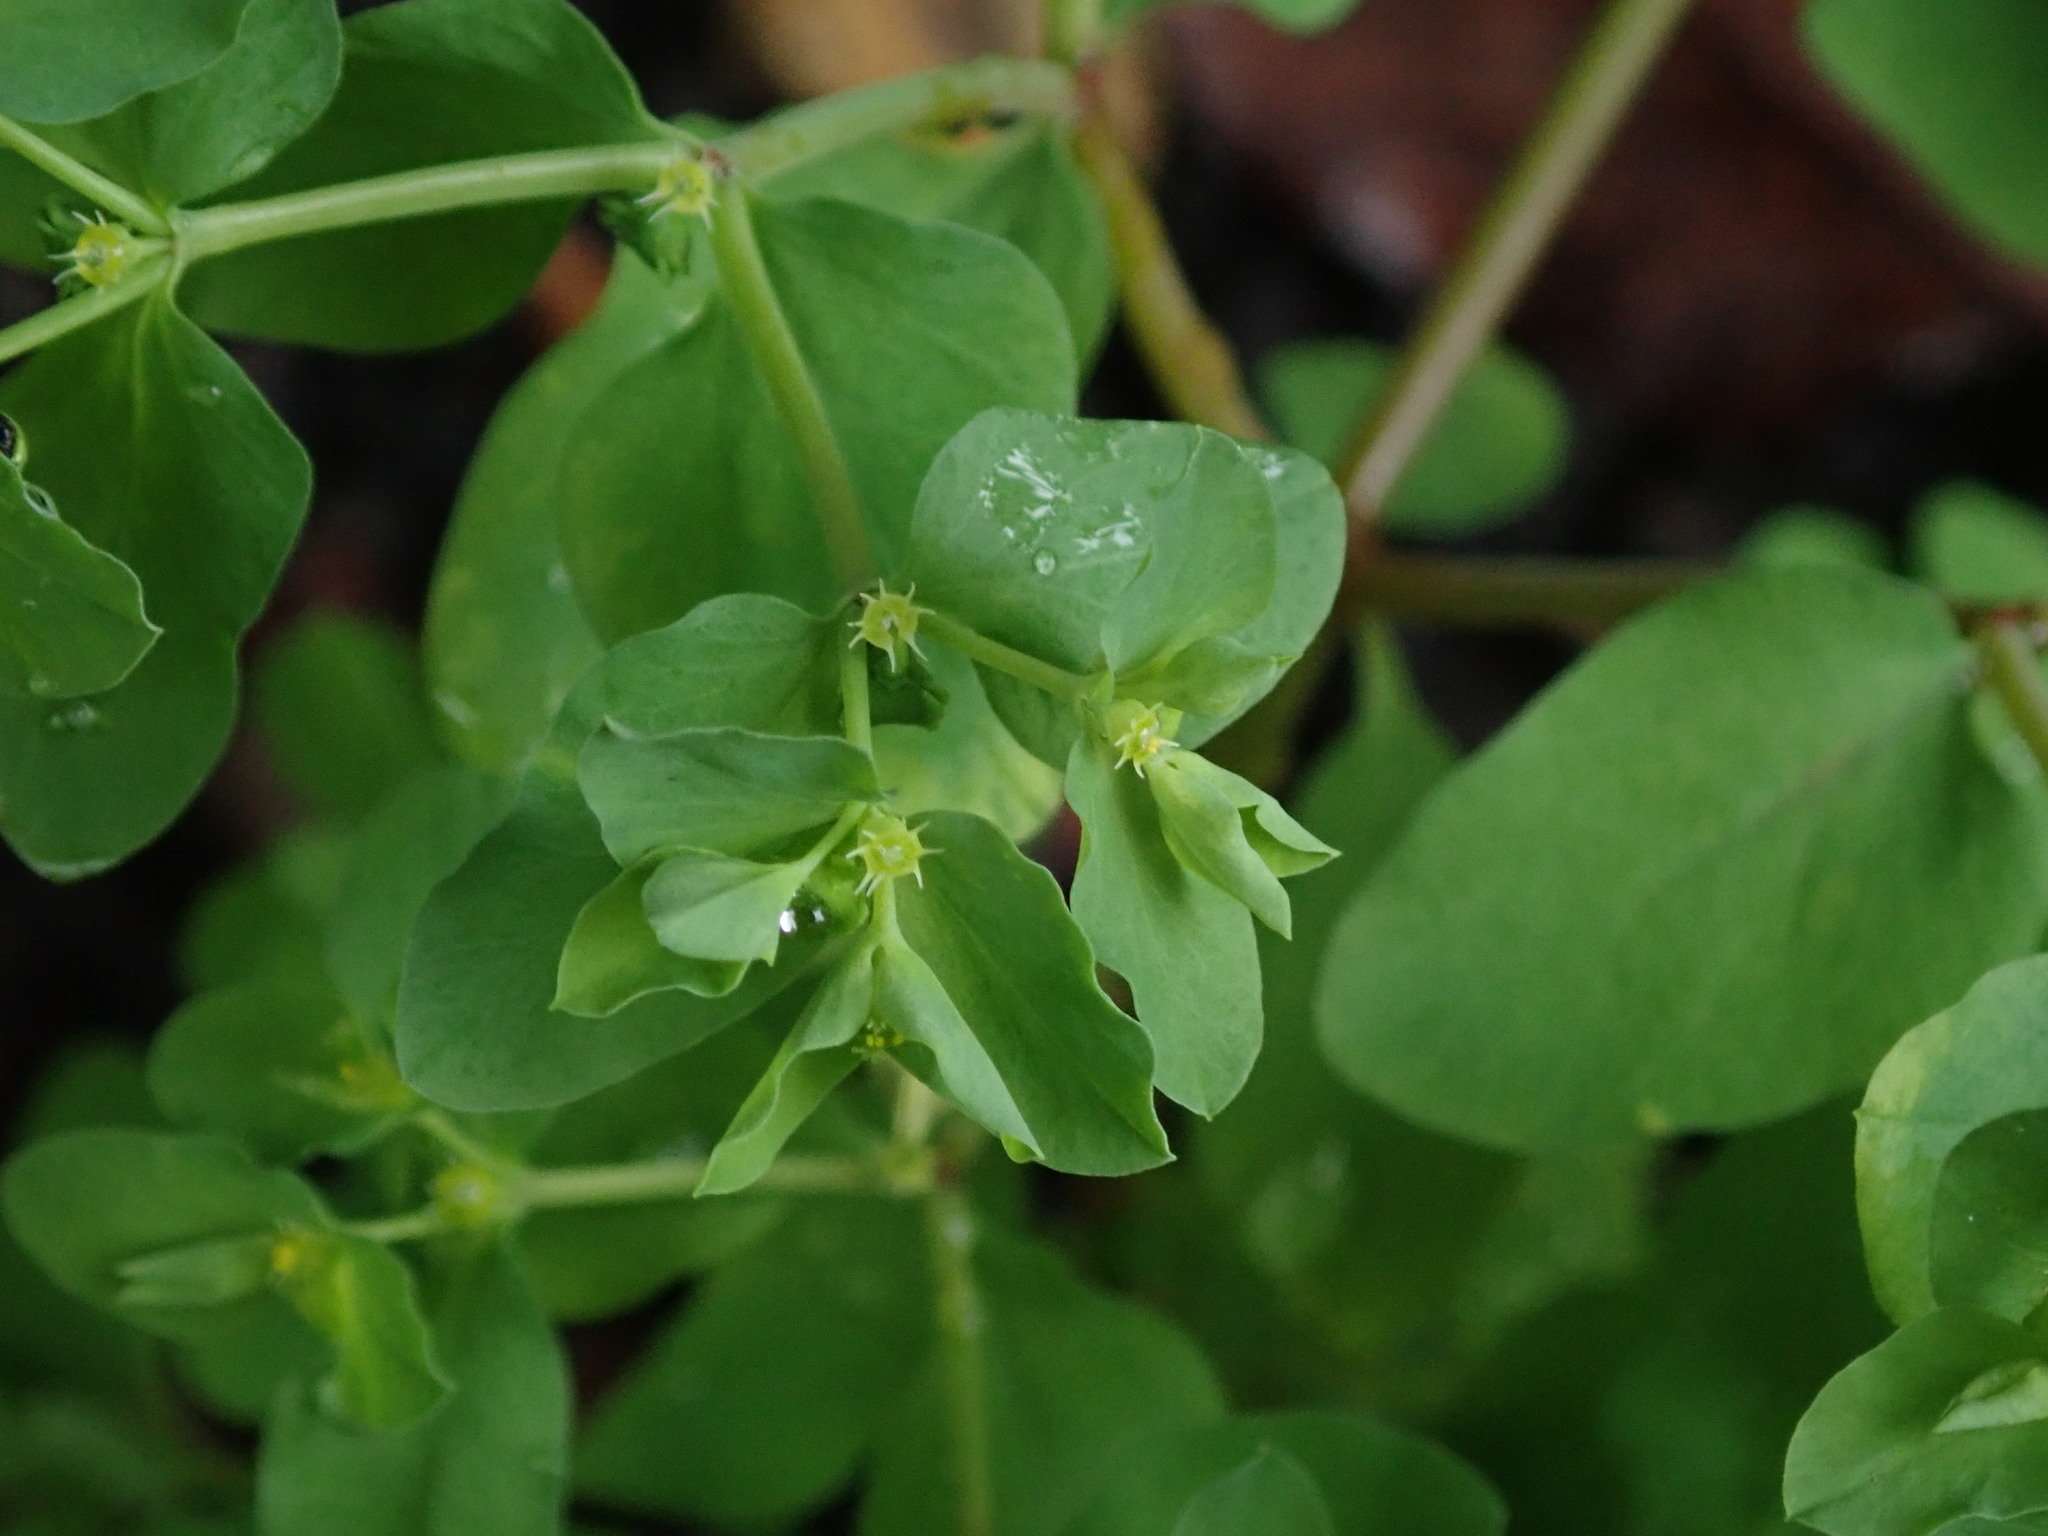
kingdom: Plantae
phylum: Tracheophyta
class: Magnoliopsida
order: Malpighiales
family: Euphorbiaceae
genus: Euphorbia
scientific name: Euphorbia peplus
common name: Petty spurge
